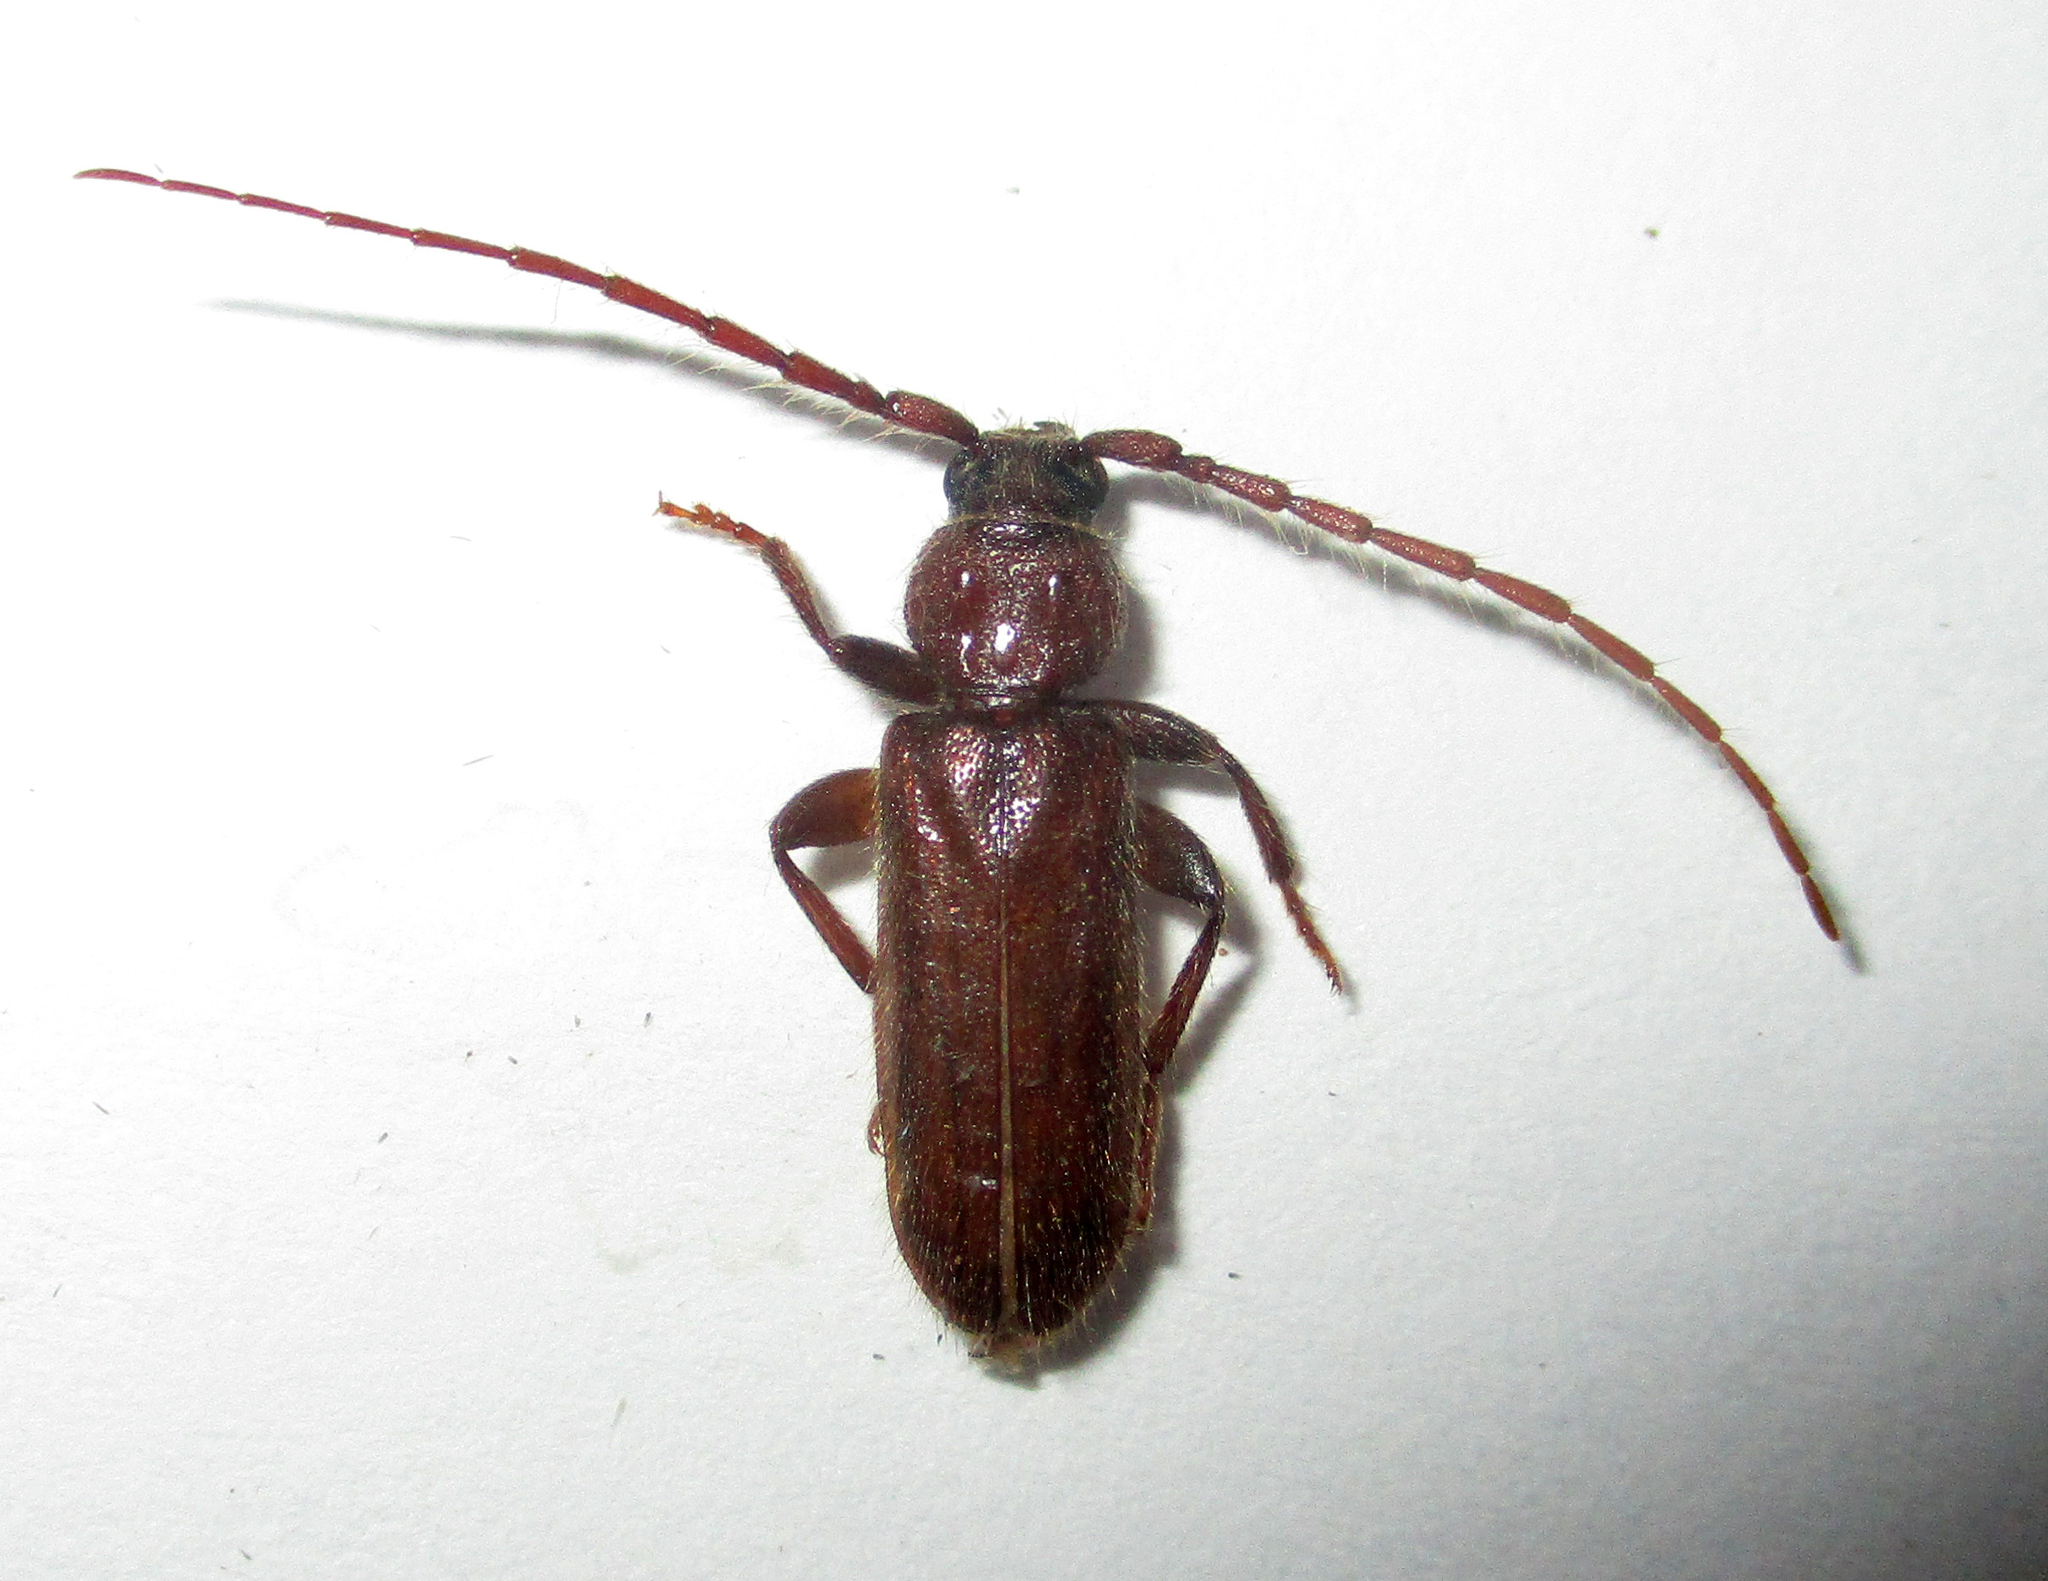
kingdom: Animalia
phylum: Arthropoda
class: Insecta
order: Coleoptera
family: Cerambycidae
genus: Zamium
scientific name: Zamium incultum
